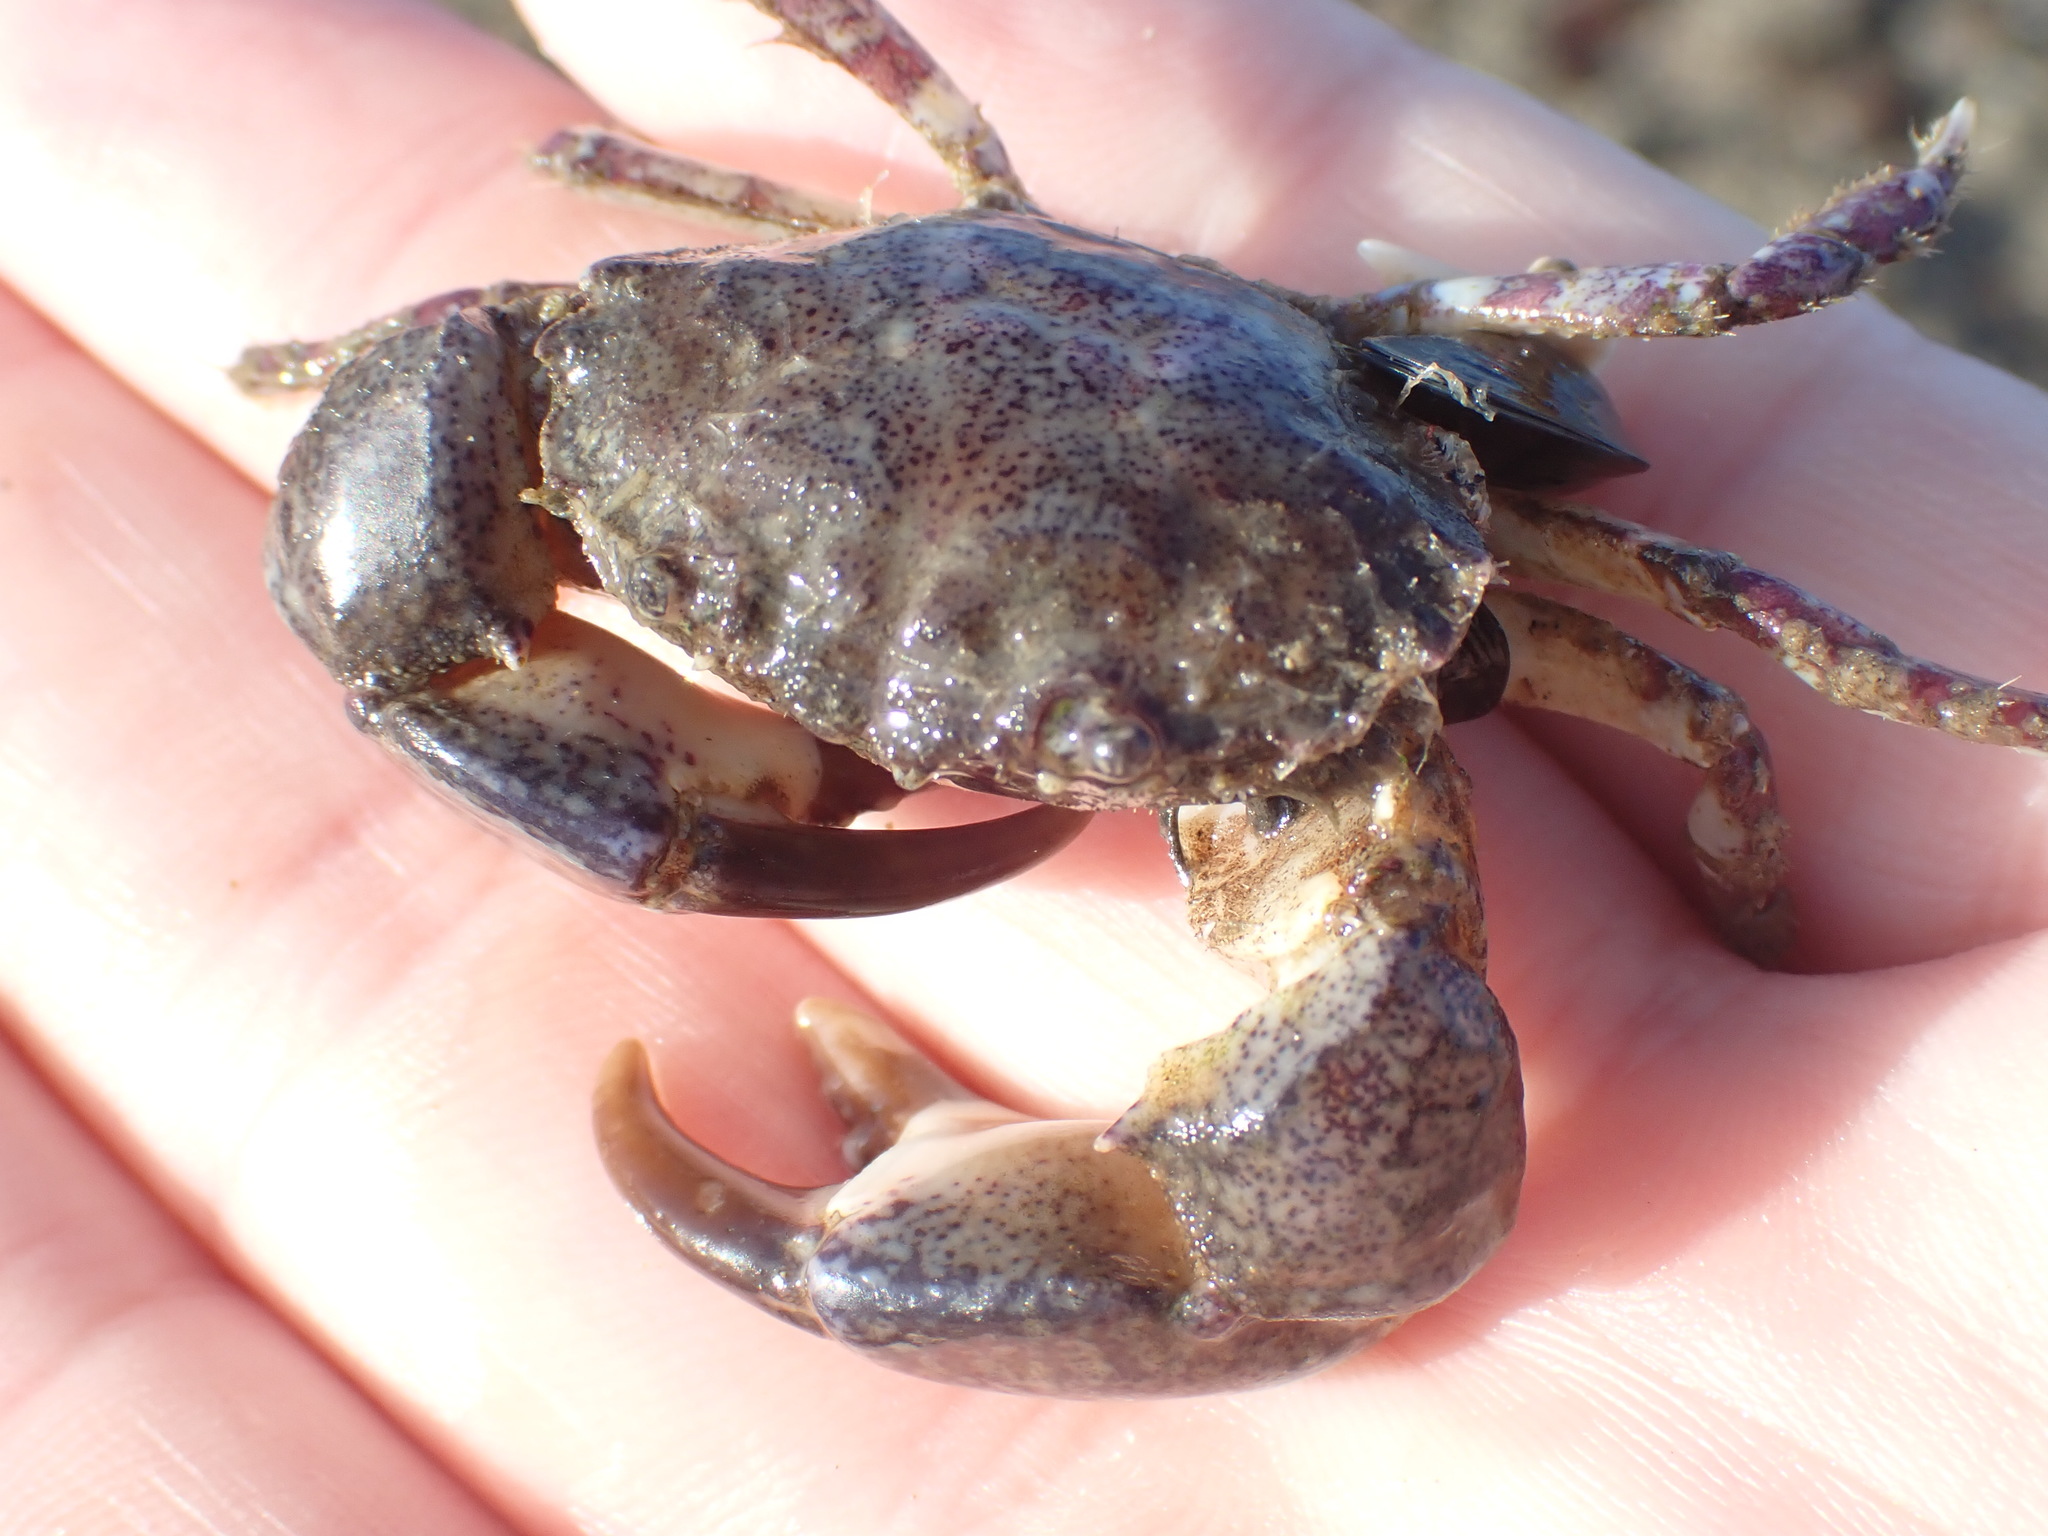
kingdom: Animalia
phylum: Arthropoda
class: Malacostraca
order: Decapoda
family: Pilumnidae
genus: Pilumnopeus
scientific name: Pilumnopeus serratifrons
